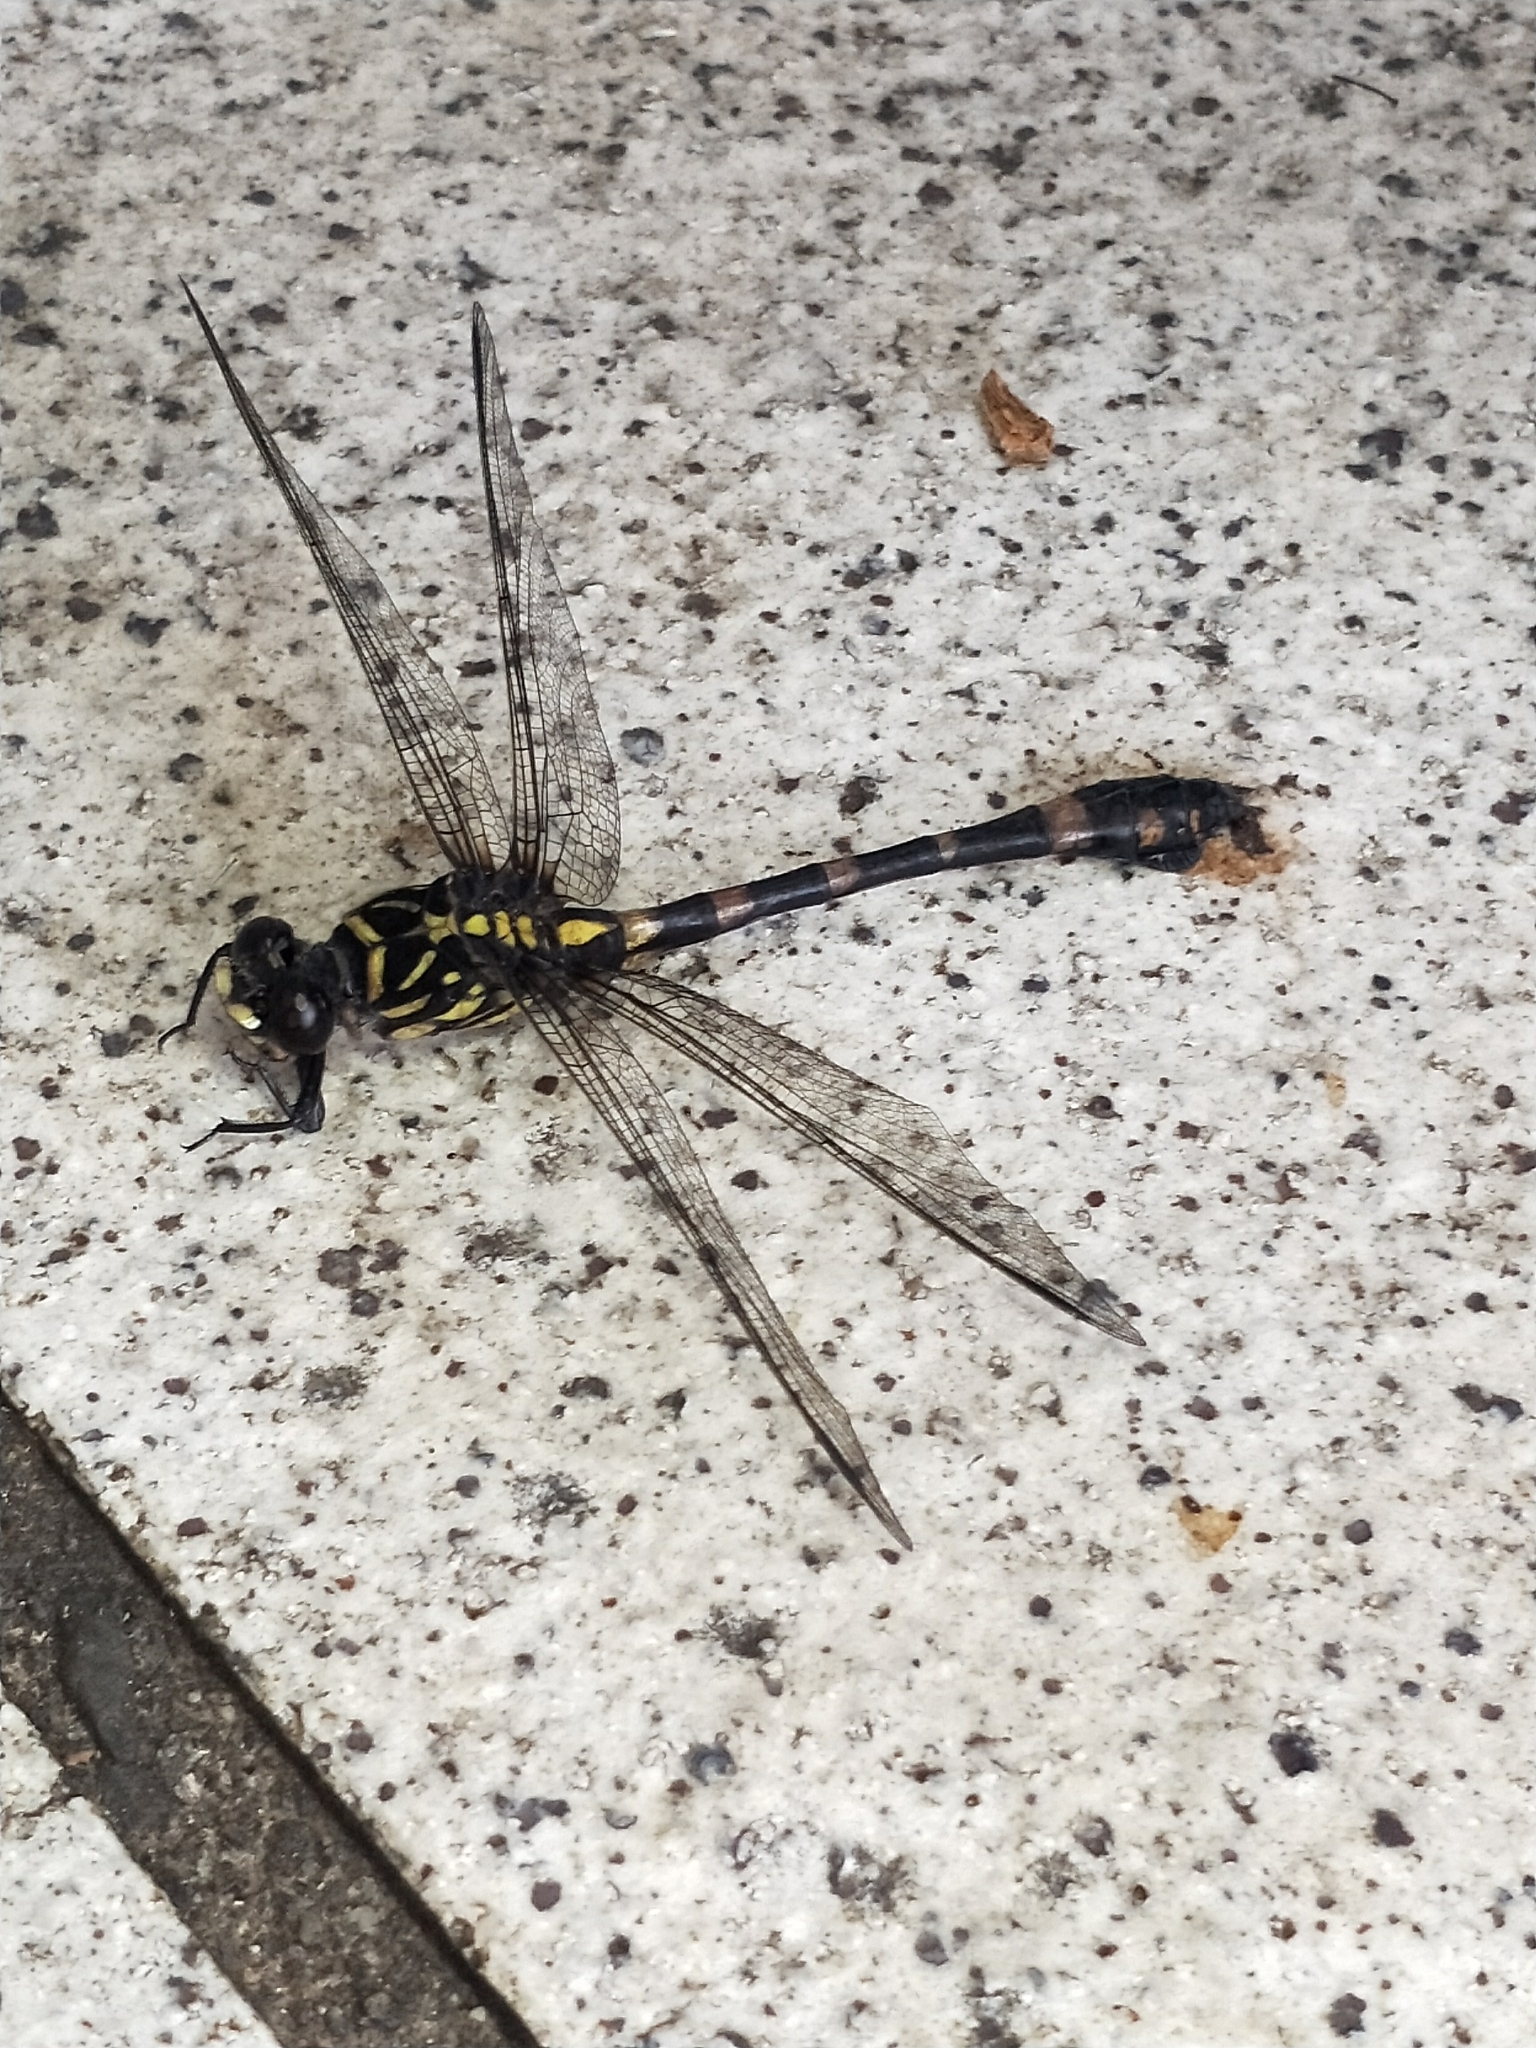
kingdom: Animalia
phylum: Arthropoda
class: Insecta
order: Odonata
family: Gomphidae
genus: Ictinogomphus
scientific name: Ictinogomphus rapax
